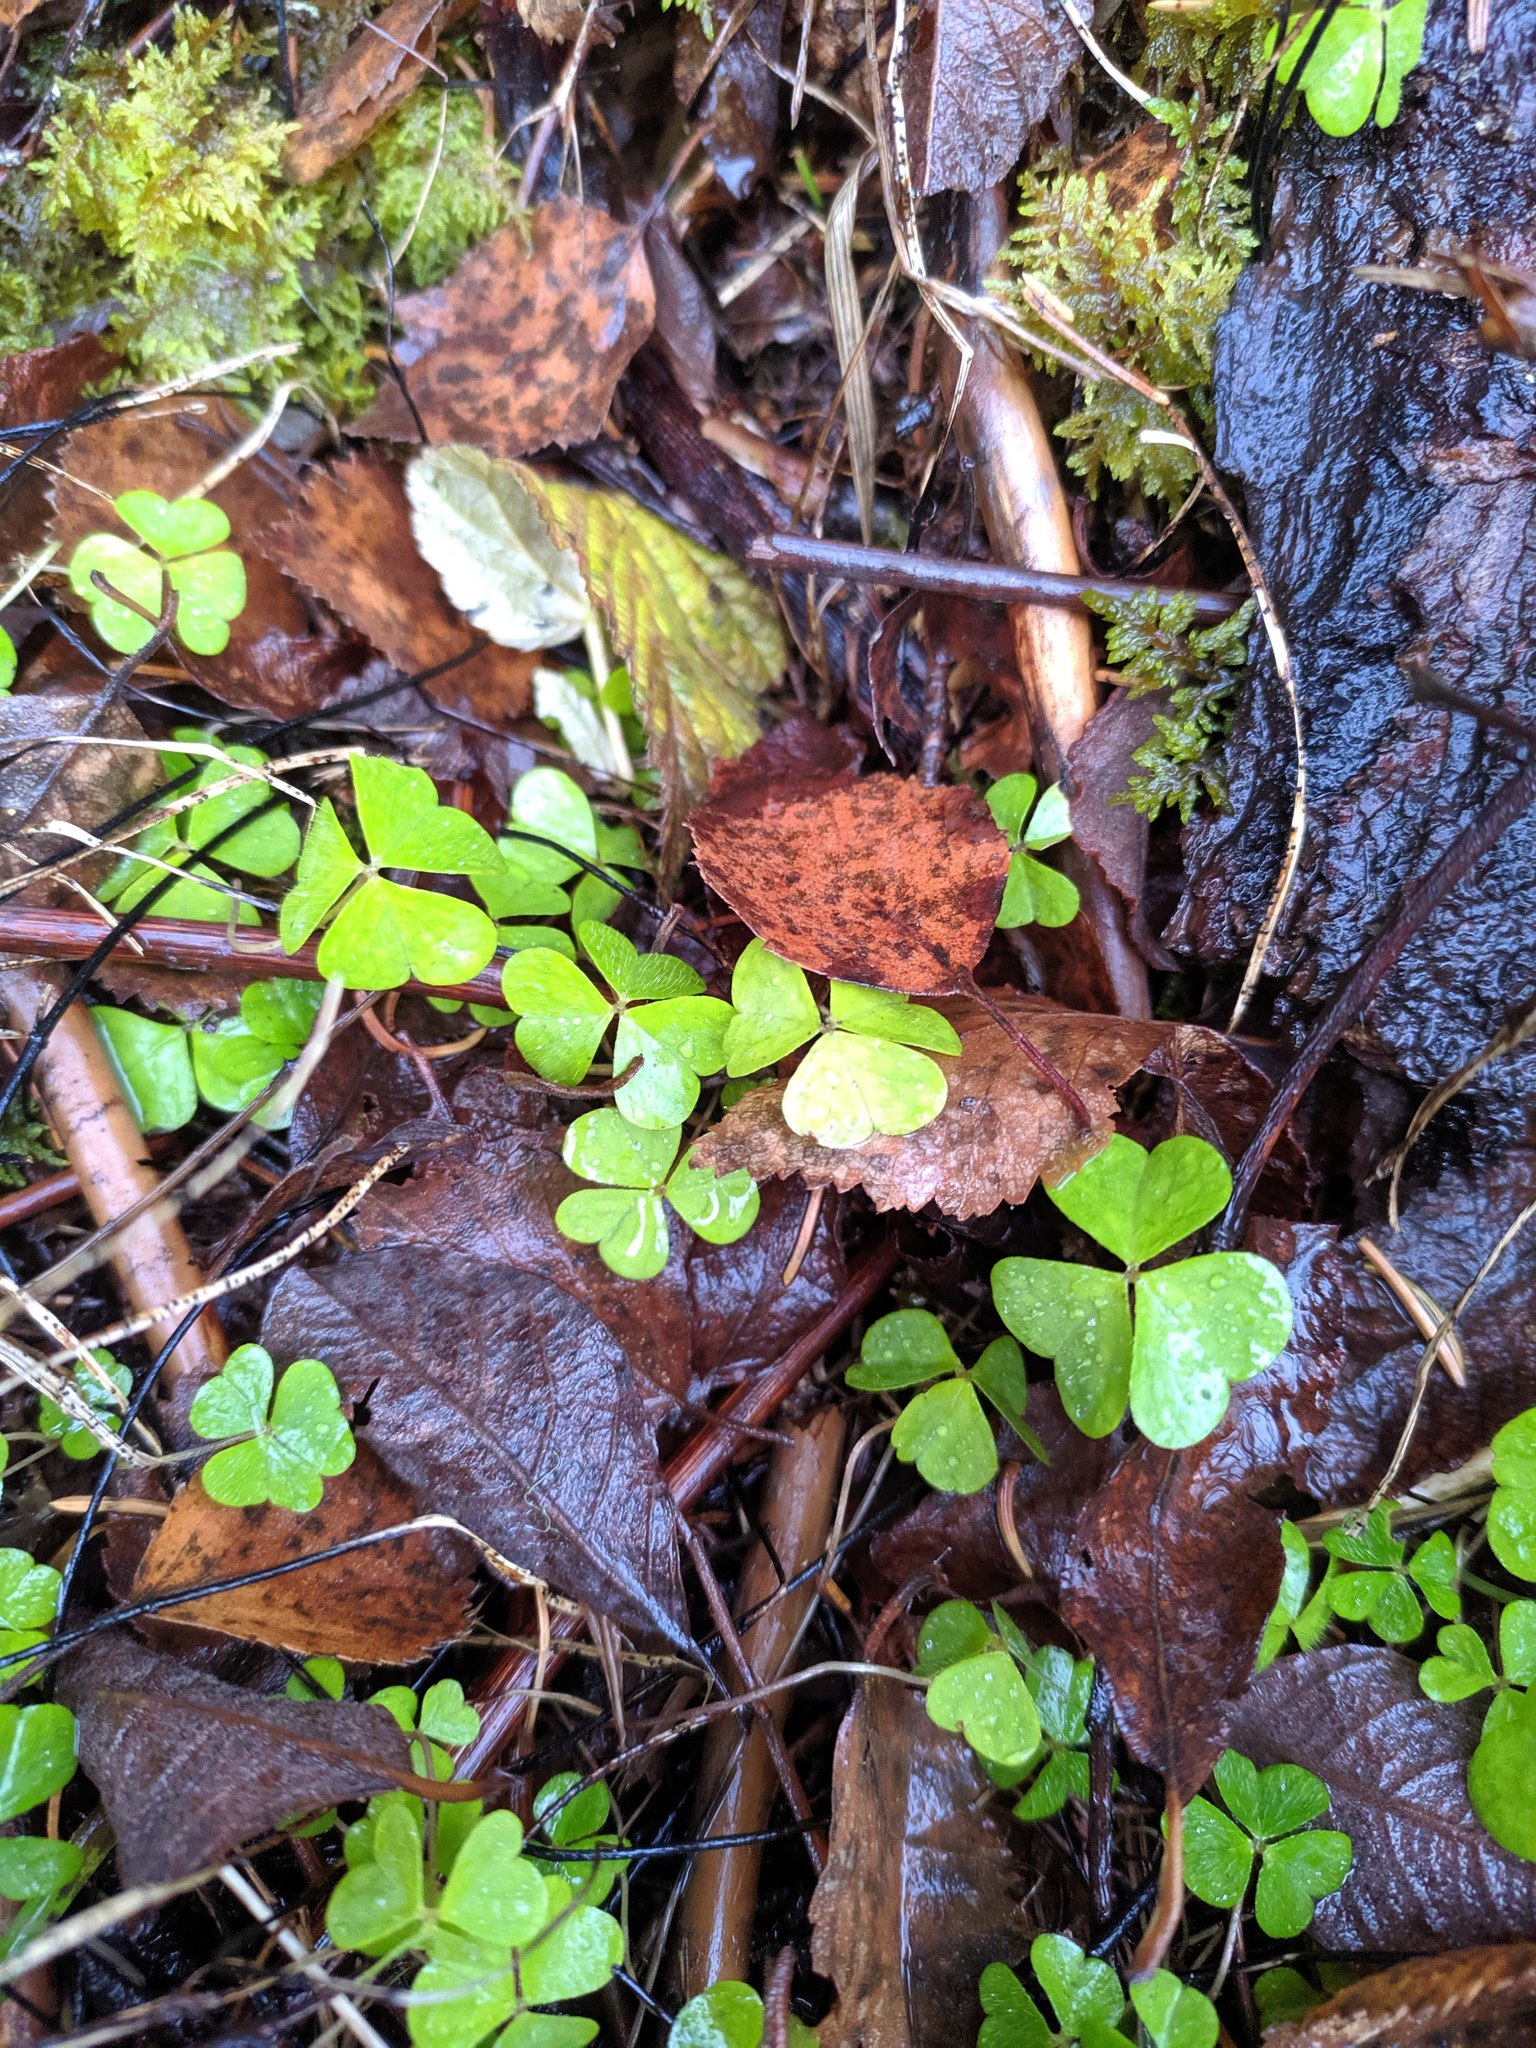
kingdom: Plantae
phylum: Tracheophyta
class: Magnoliopsida
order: Oxalidales
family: Oxalidaceae
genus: Oxalis
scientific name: Oxalis acetosella
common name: Wood-sorrel
